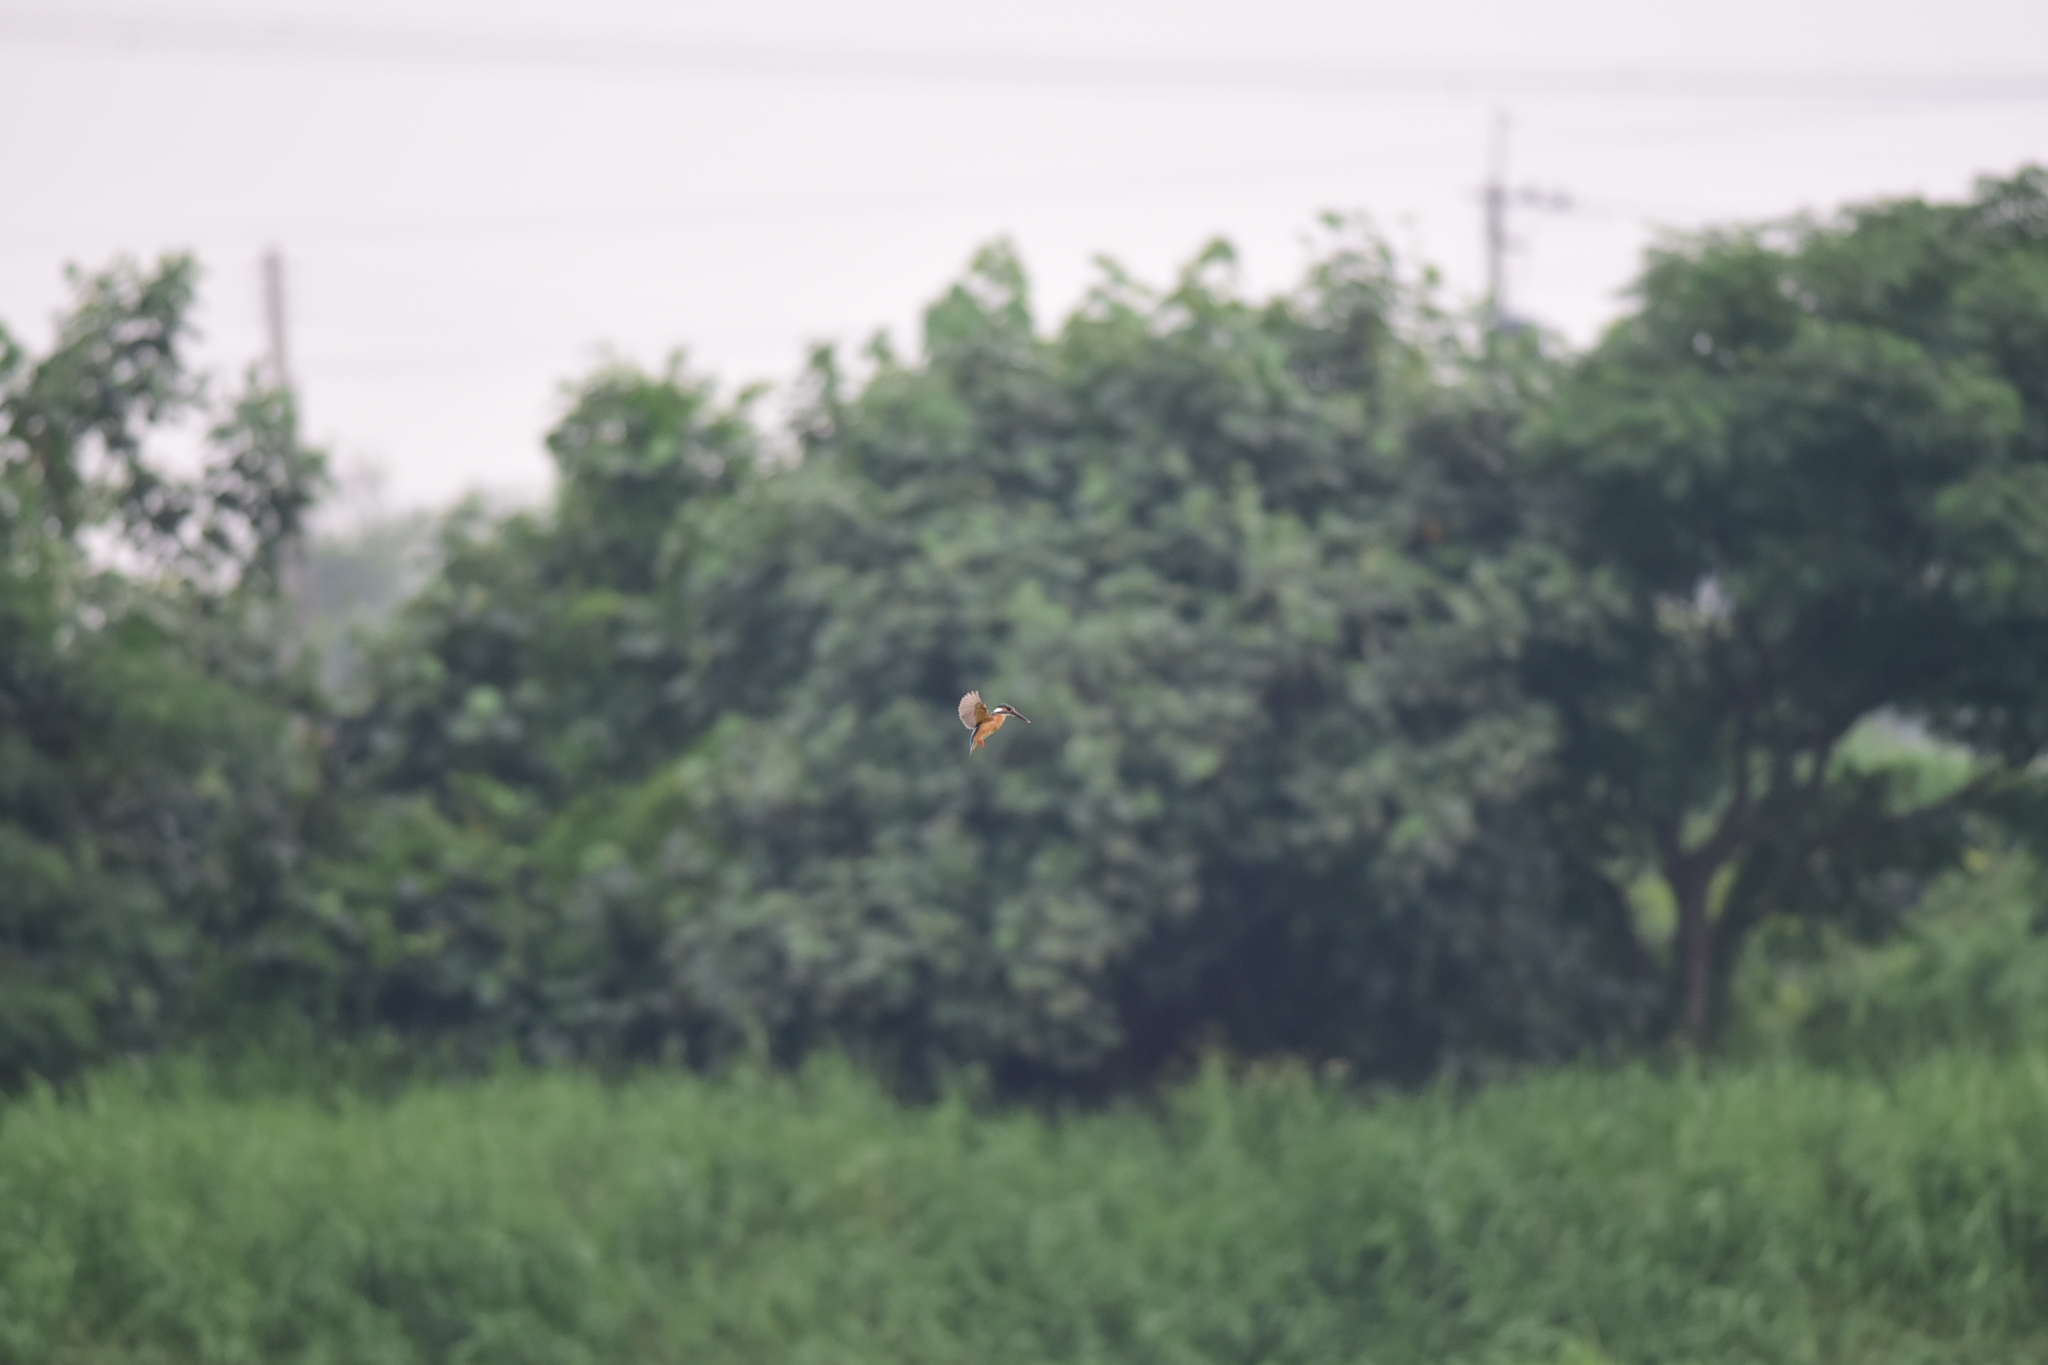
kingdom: Animalia
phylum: Chordata
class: Aves
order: Coraciiformes
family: Alcedinidae
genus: Alcedo
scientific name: Alcedo atthis
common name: Common kingfisher
